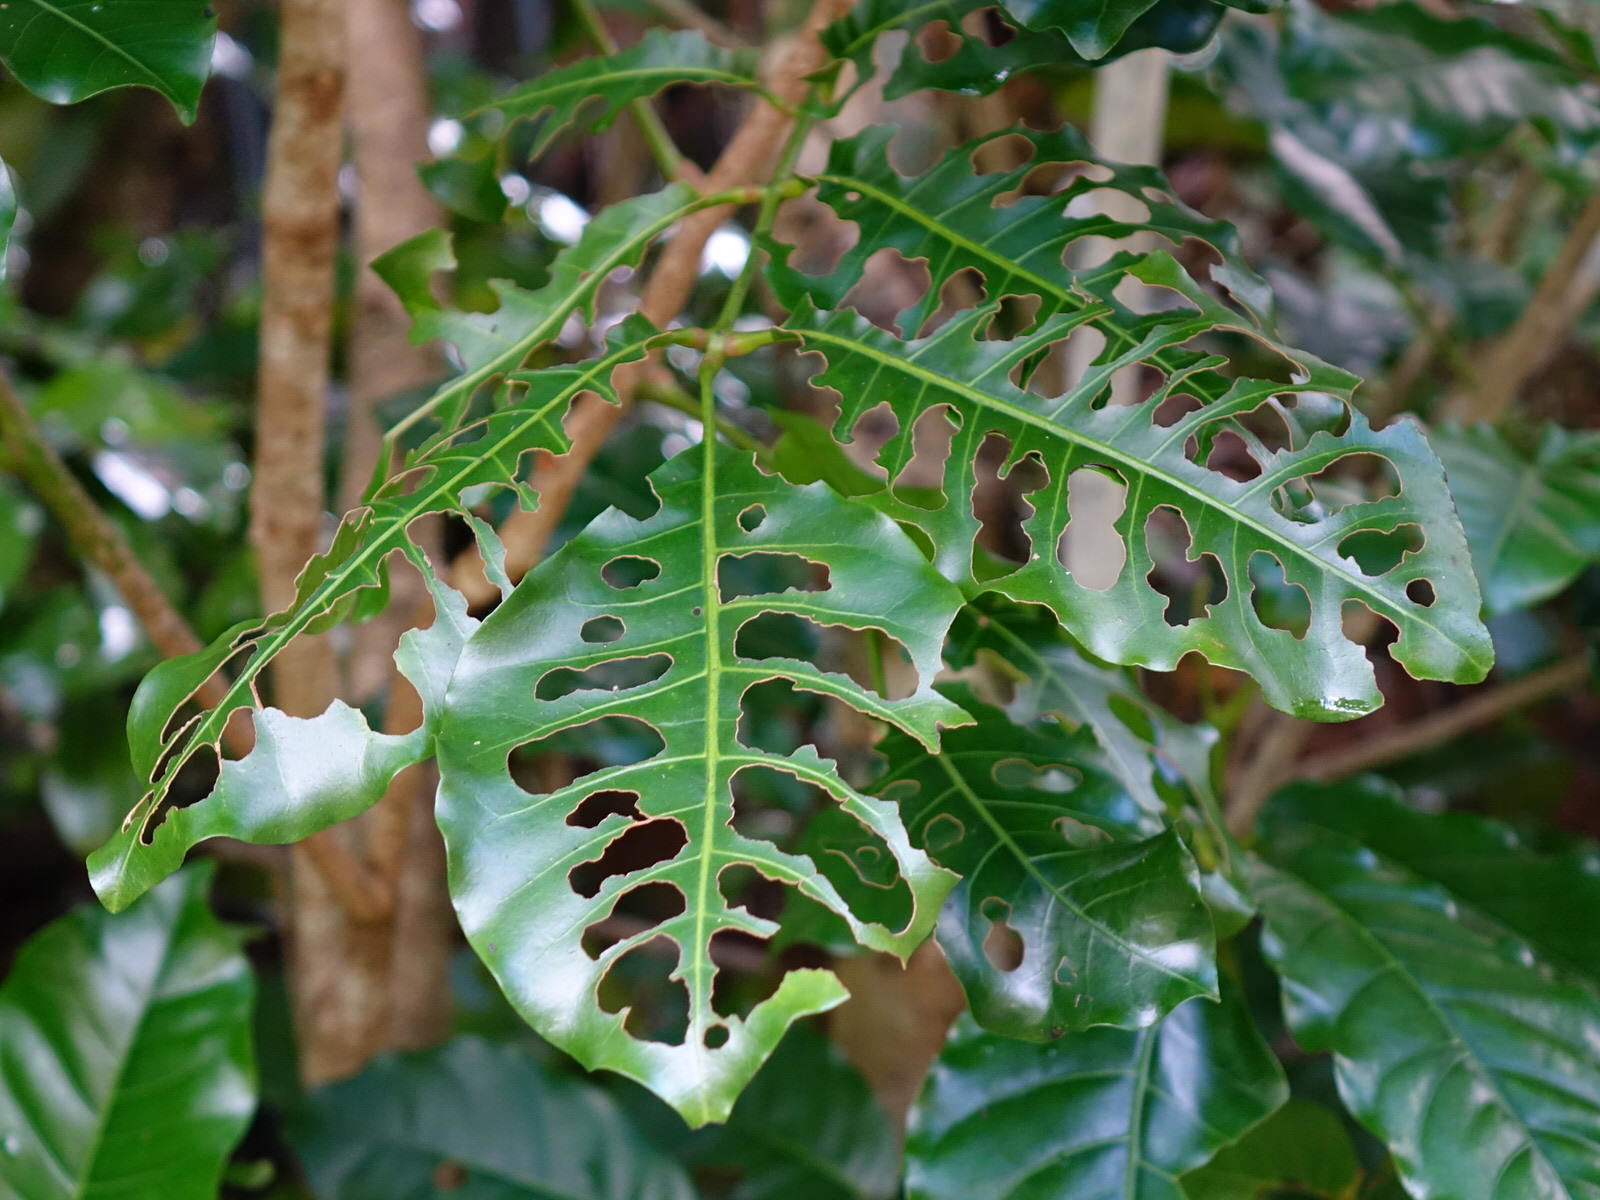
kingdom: Plantae
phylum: Tracheophyta
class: Magnoliopsida
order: Sapindales
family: Meliaceae
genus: Didymocheton
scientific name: Didymocheton spectabilis
